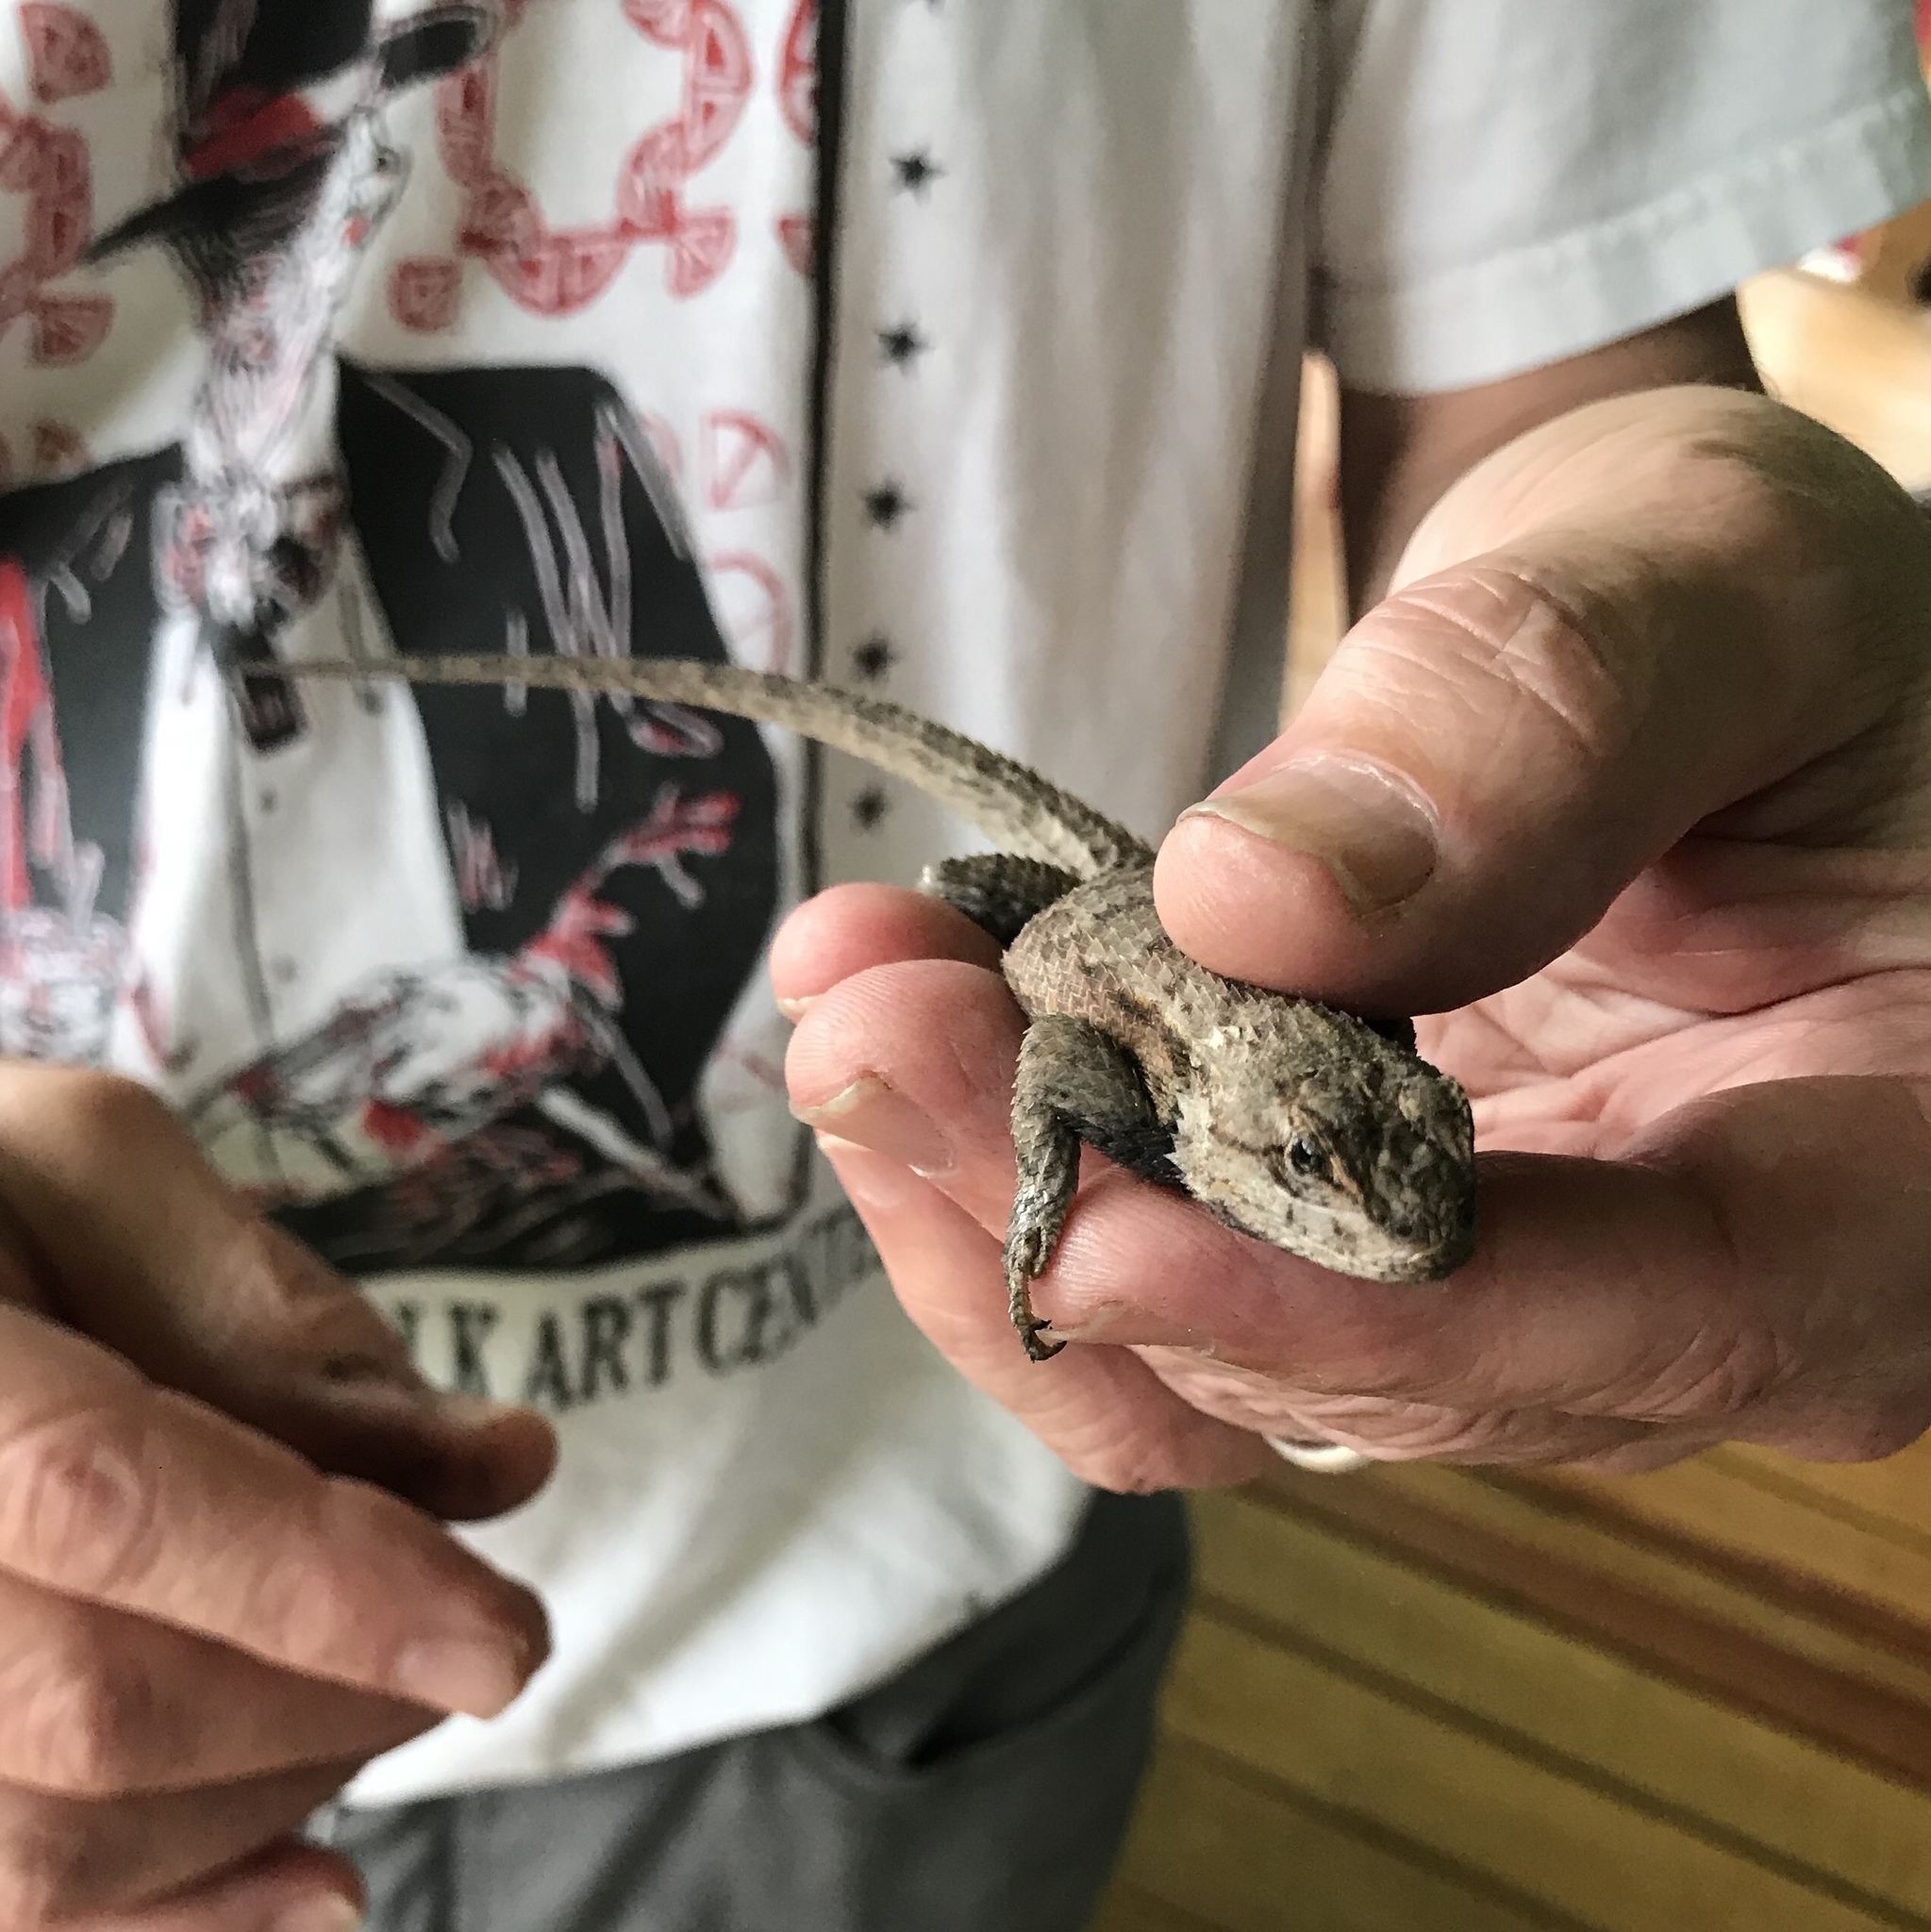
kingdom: Animalia
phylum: Chordata
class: Squamata
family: Phrynosomatidae
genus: Sceloporus
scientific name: Sceloporus undulatus
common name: Eastern fence lizard
